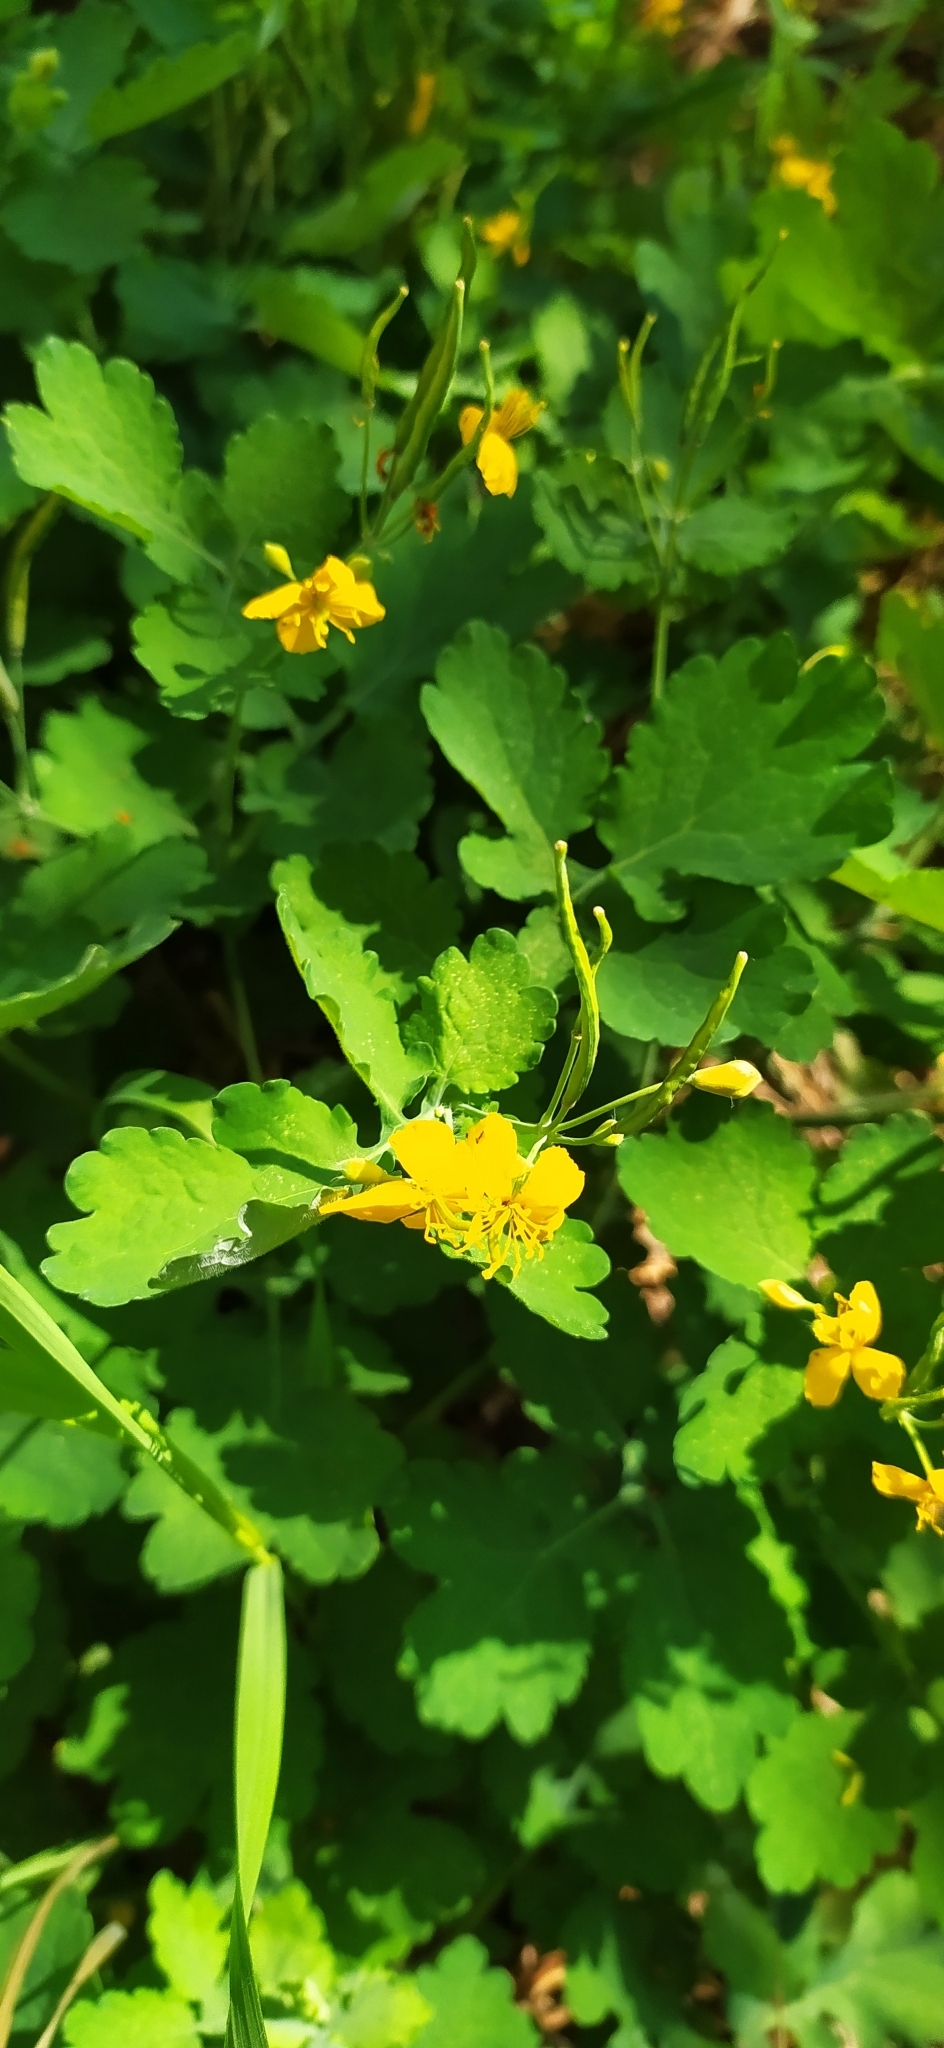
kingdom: Plantae
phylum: Tracheophyta
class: Magnoliopsida
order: Ranunculales
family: Papaveraceae
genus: Chelidonium
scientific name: Chelidonium majus
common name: Greater celandine
